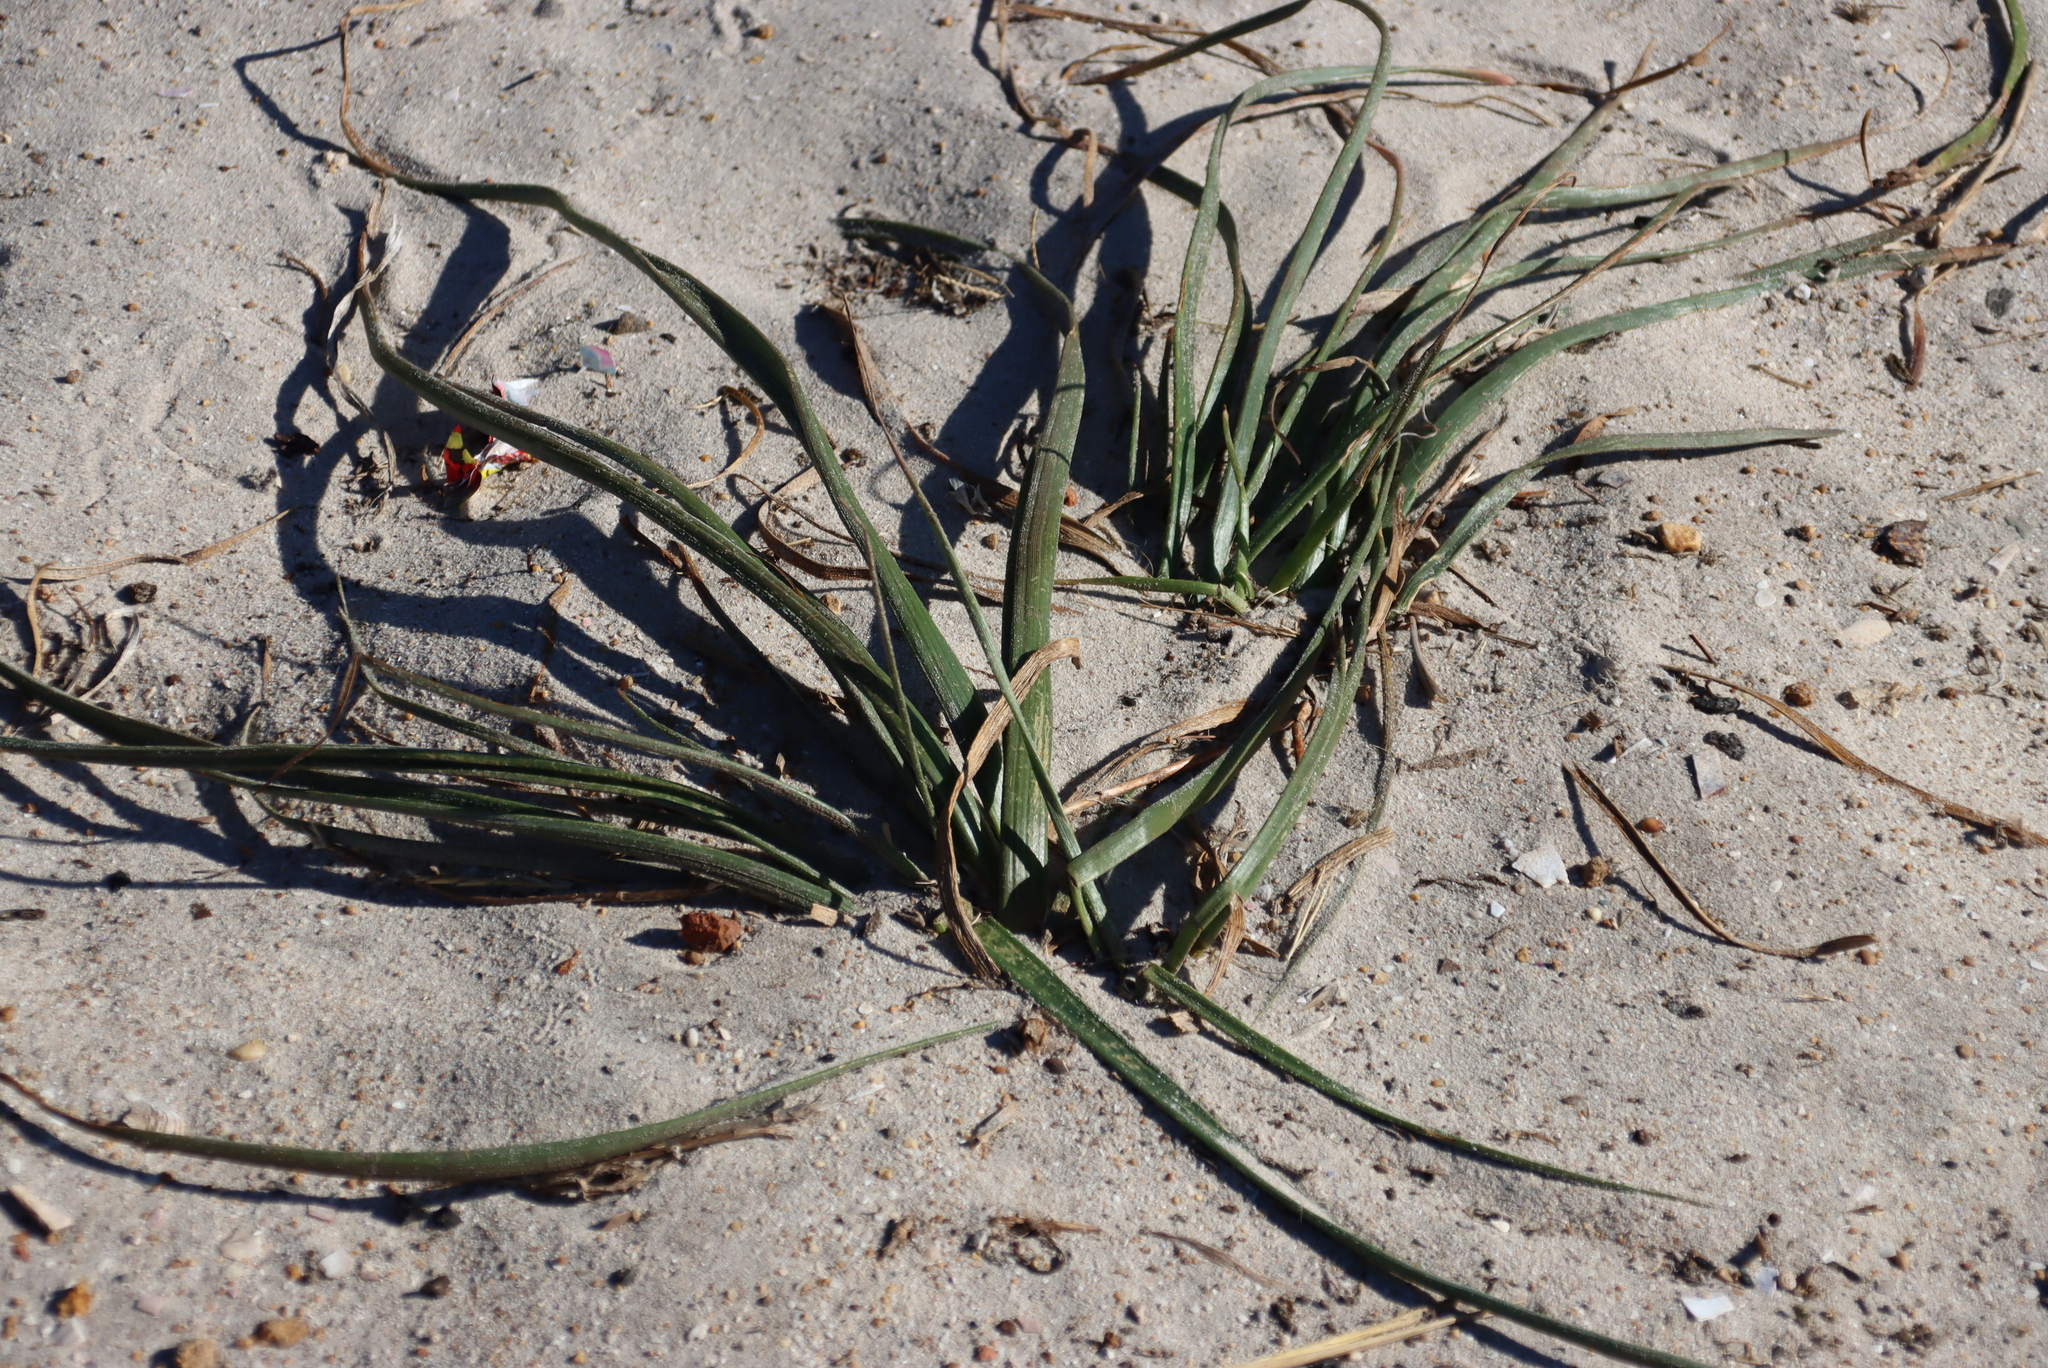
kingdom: Plantae
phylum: Tracheophyta
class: Liliopsida
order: Asparagales
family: Asphodelaceae
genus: Trachyandra
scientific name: Trachyandra divaricata
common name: Dune onionweed
